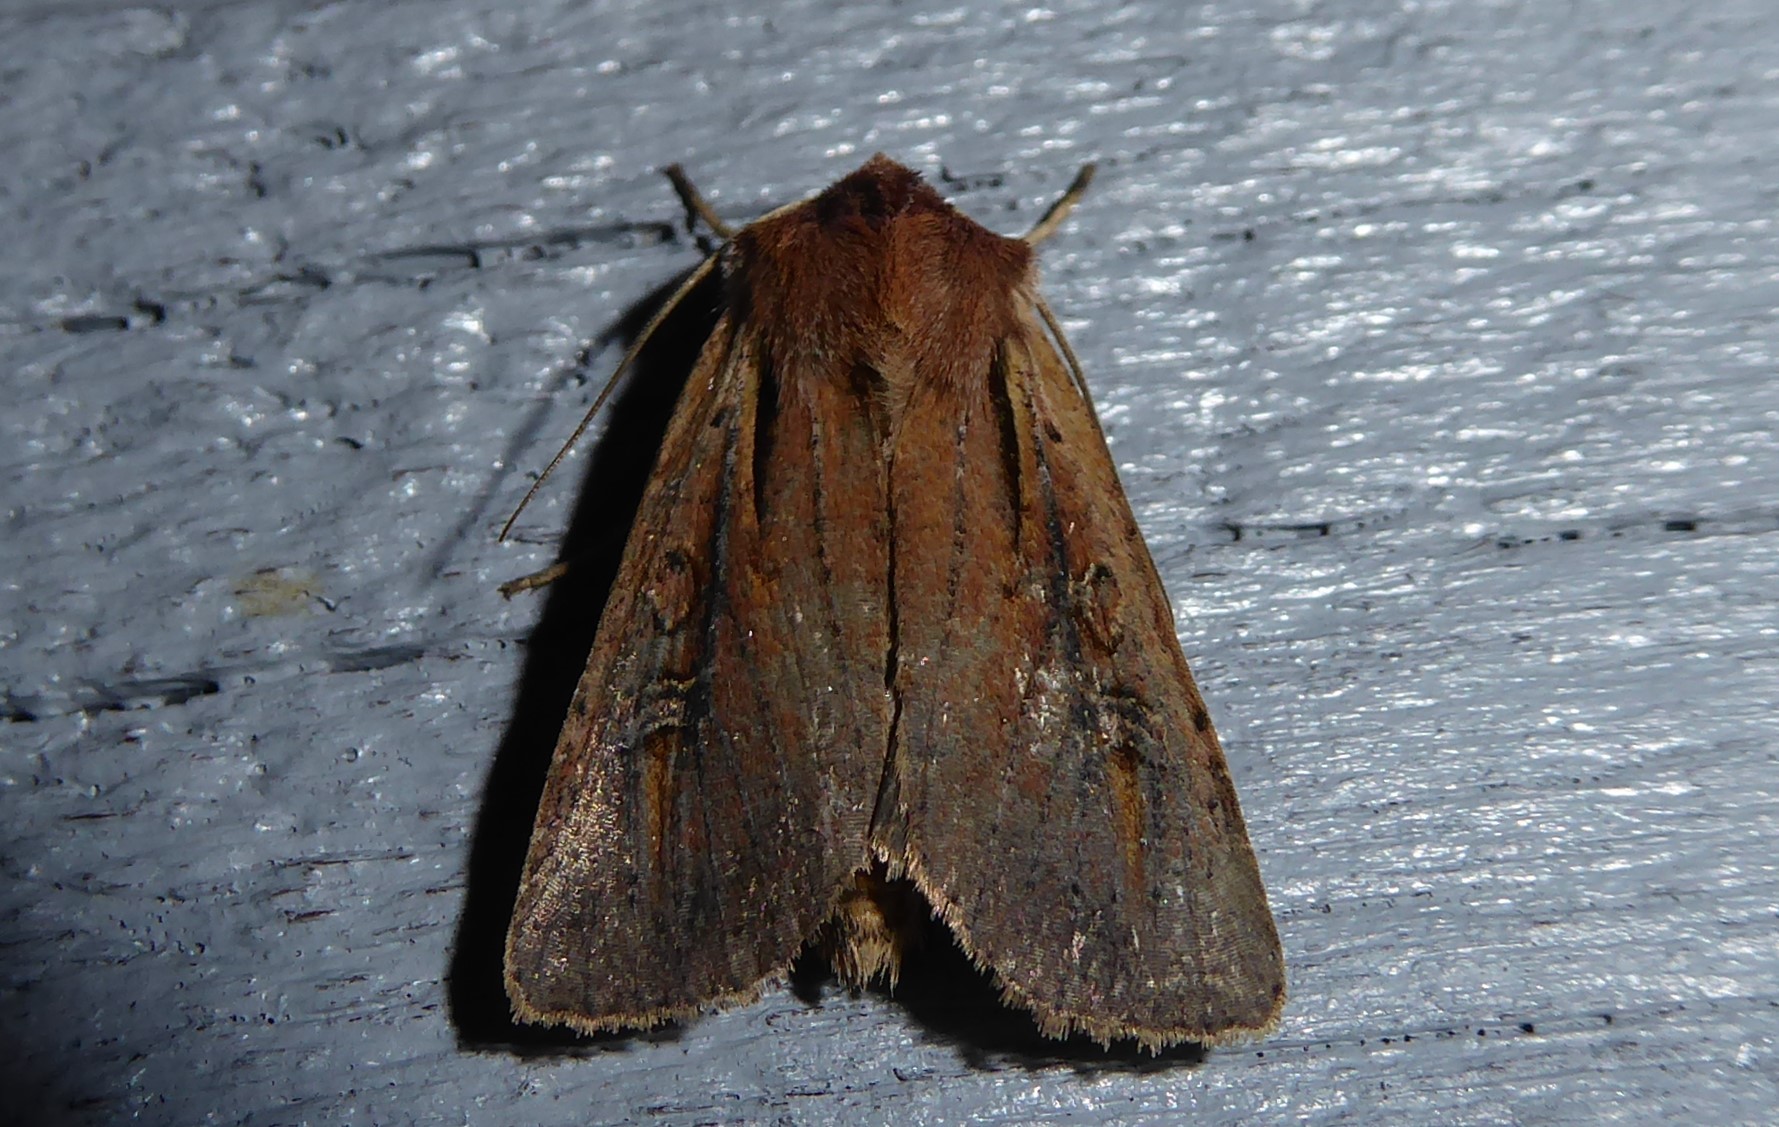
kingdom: Animalia
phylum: Arthropoda
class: Insecta
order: Lepidoptera
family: Noctuidae
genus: Ichneutica
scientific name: Ichneutica atristriga
